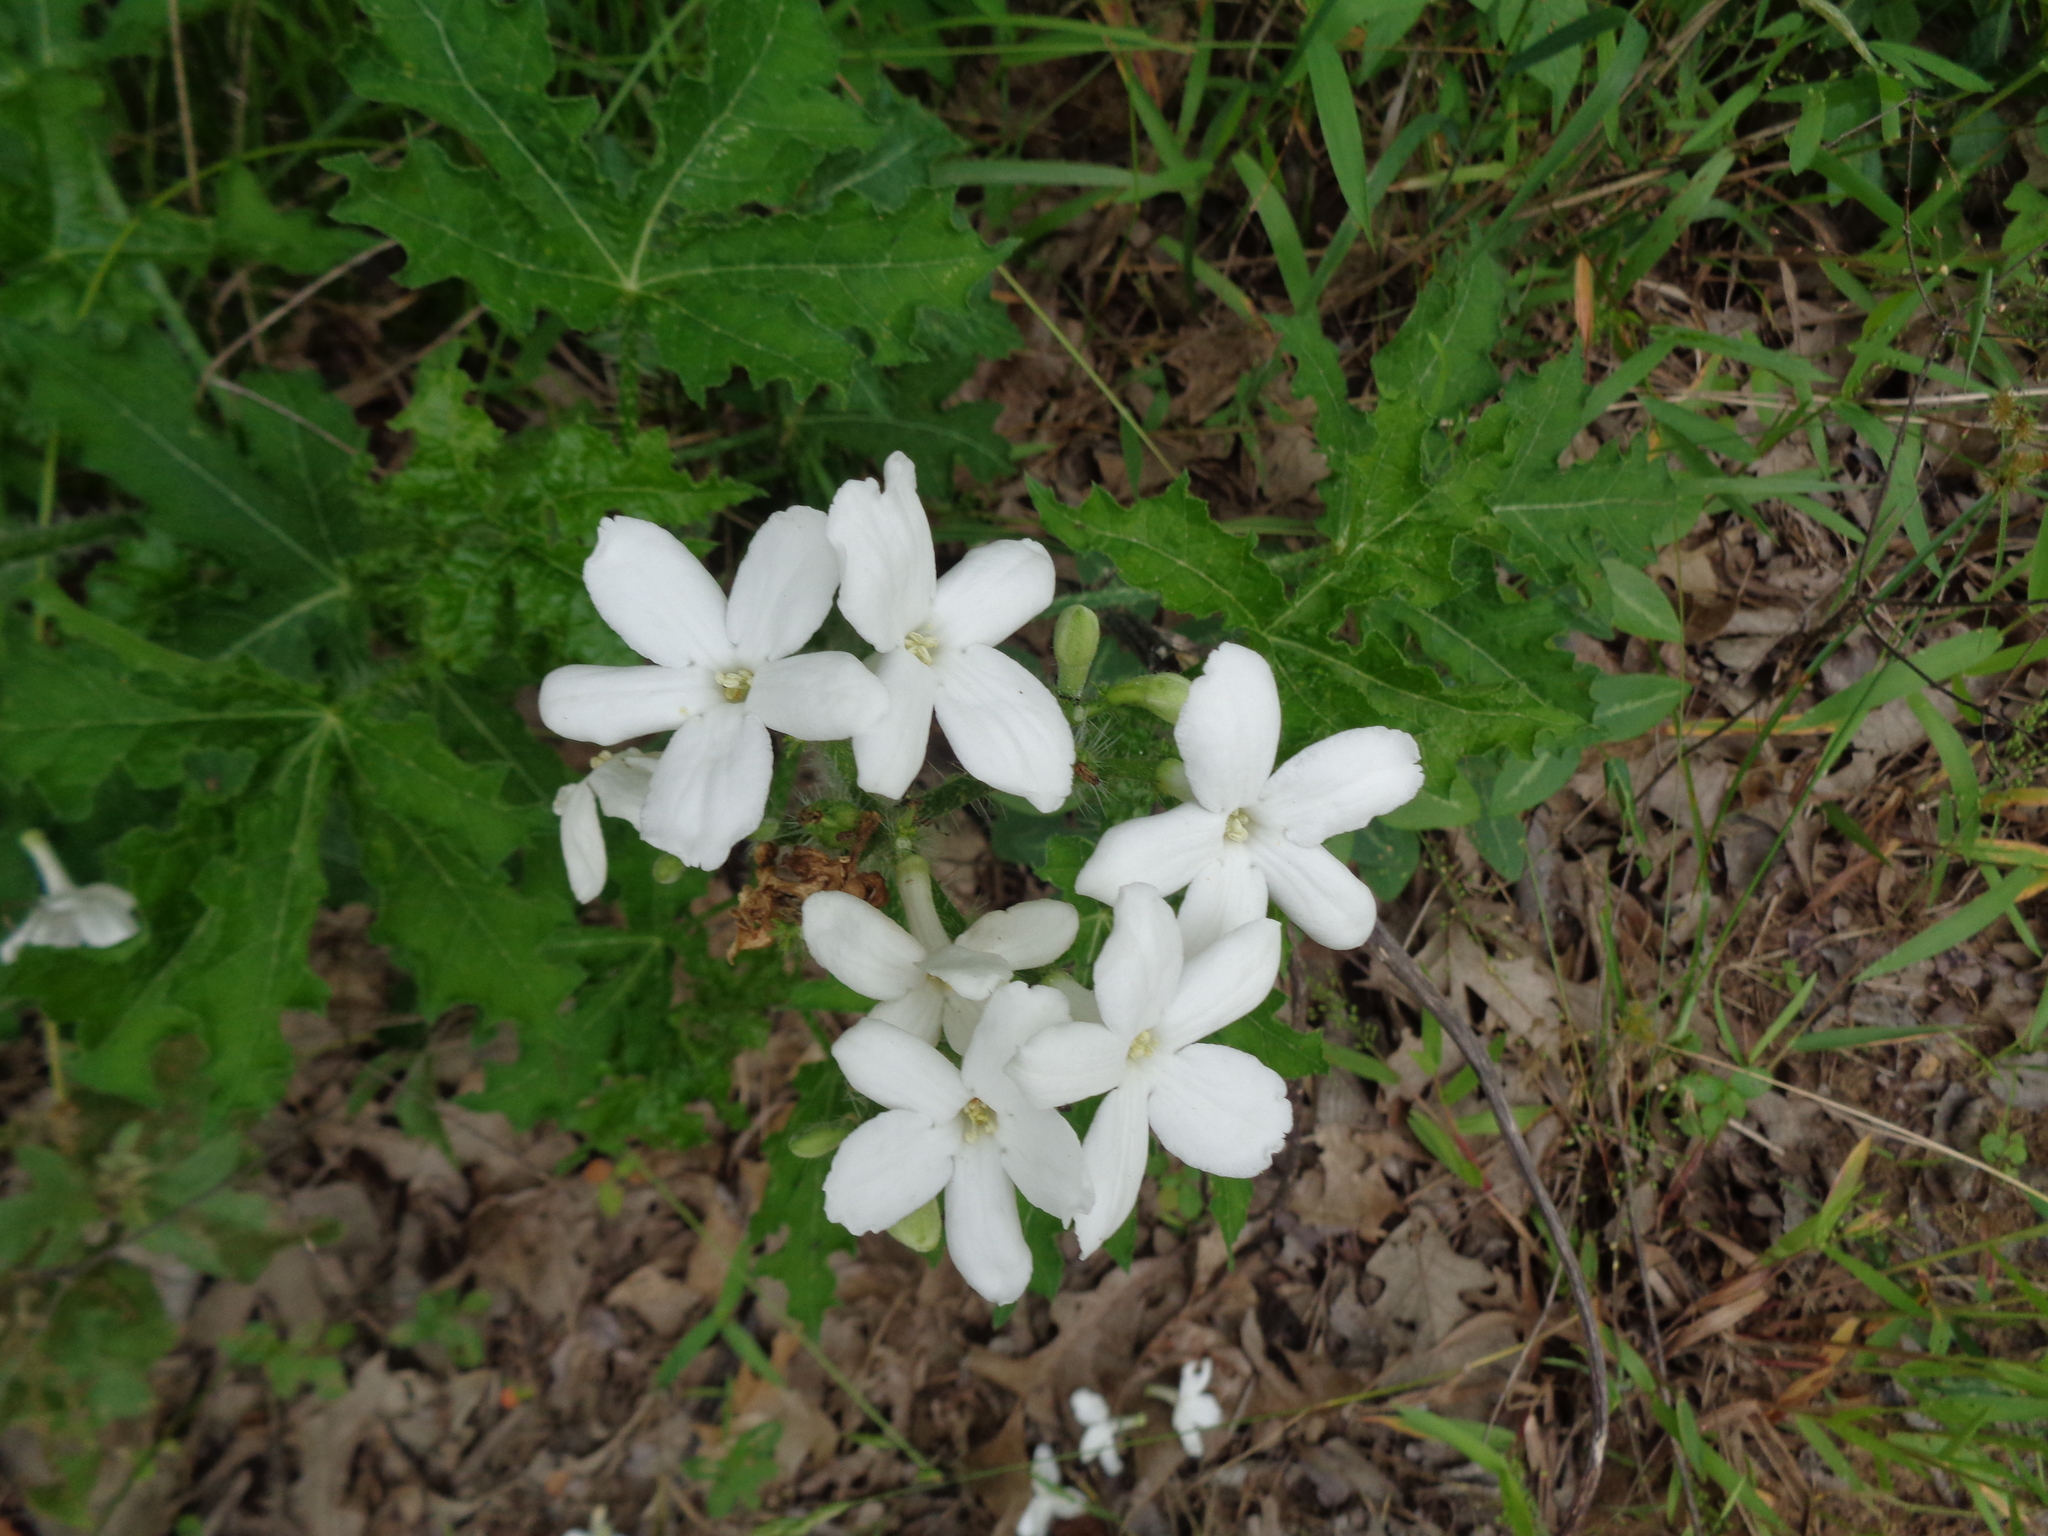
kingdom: Plantae
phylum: Tracheophyta
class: Magnoliopsida
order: Malpighiales
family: Euphorbiaceae
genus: Cnidoscolus
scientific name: Cnidoscolus texanus
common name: Texas bull-nettle
